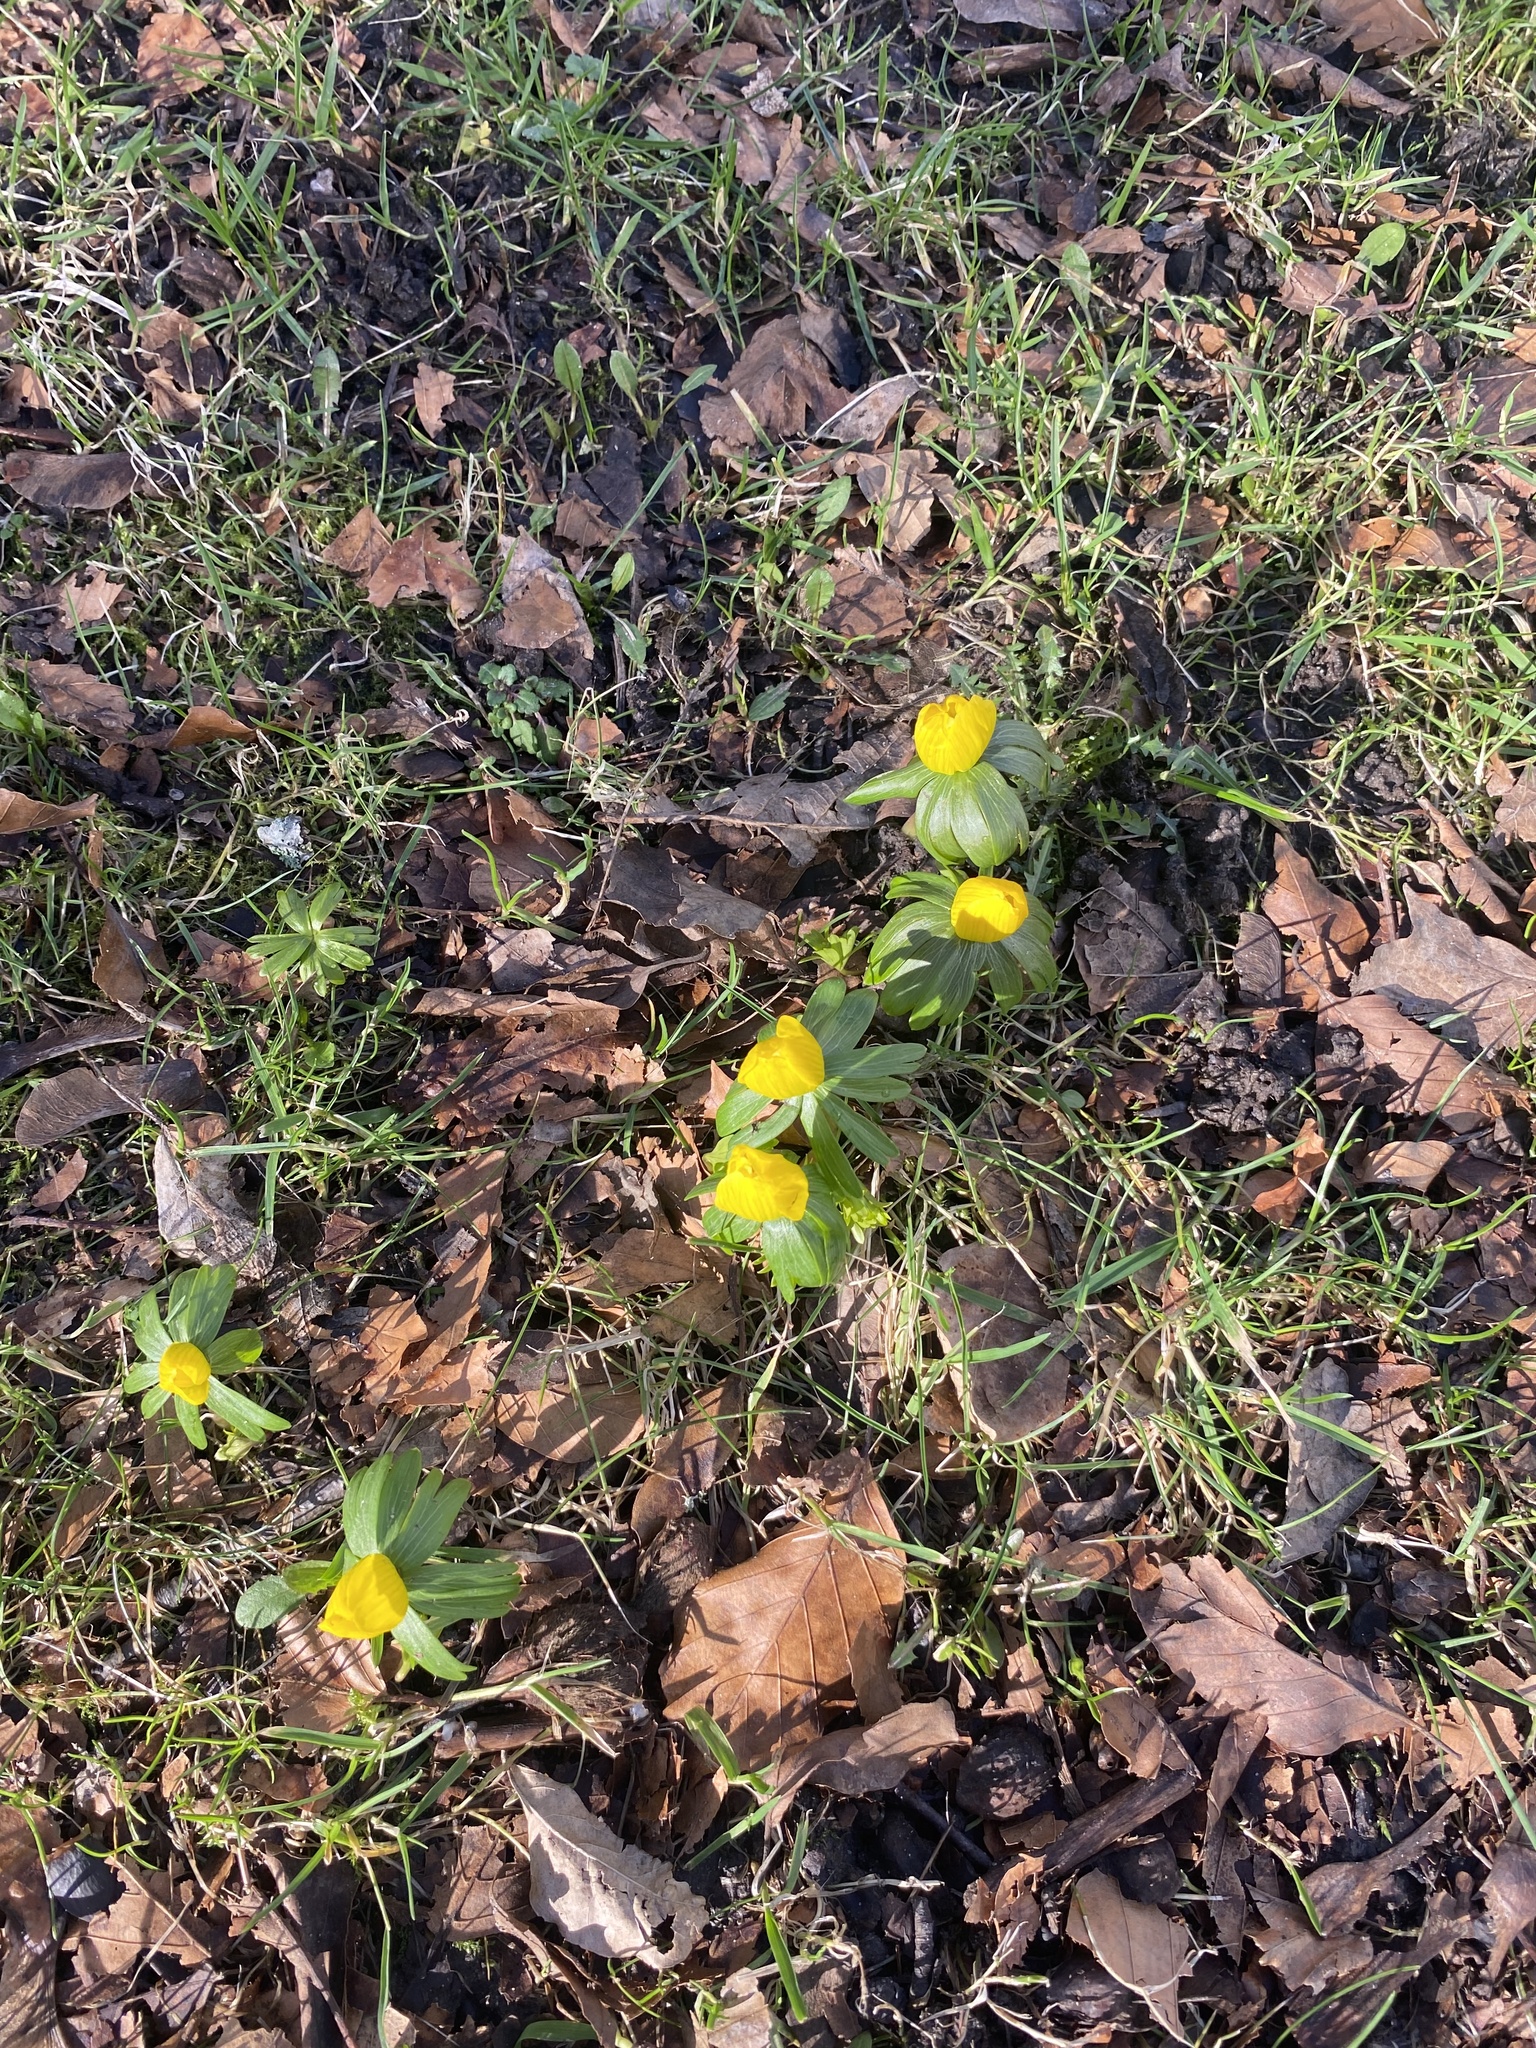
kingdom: Plantae
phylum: Tracheophyta
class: Magnoliopsida
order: Ranunculales
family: Ranunculaceae
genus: Eranthis
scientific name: Eranthis hyemalis
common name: Winter aconite
